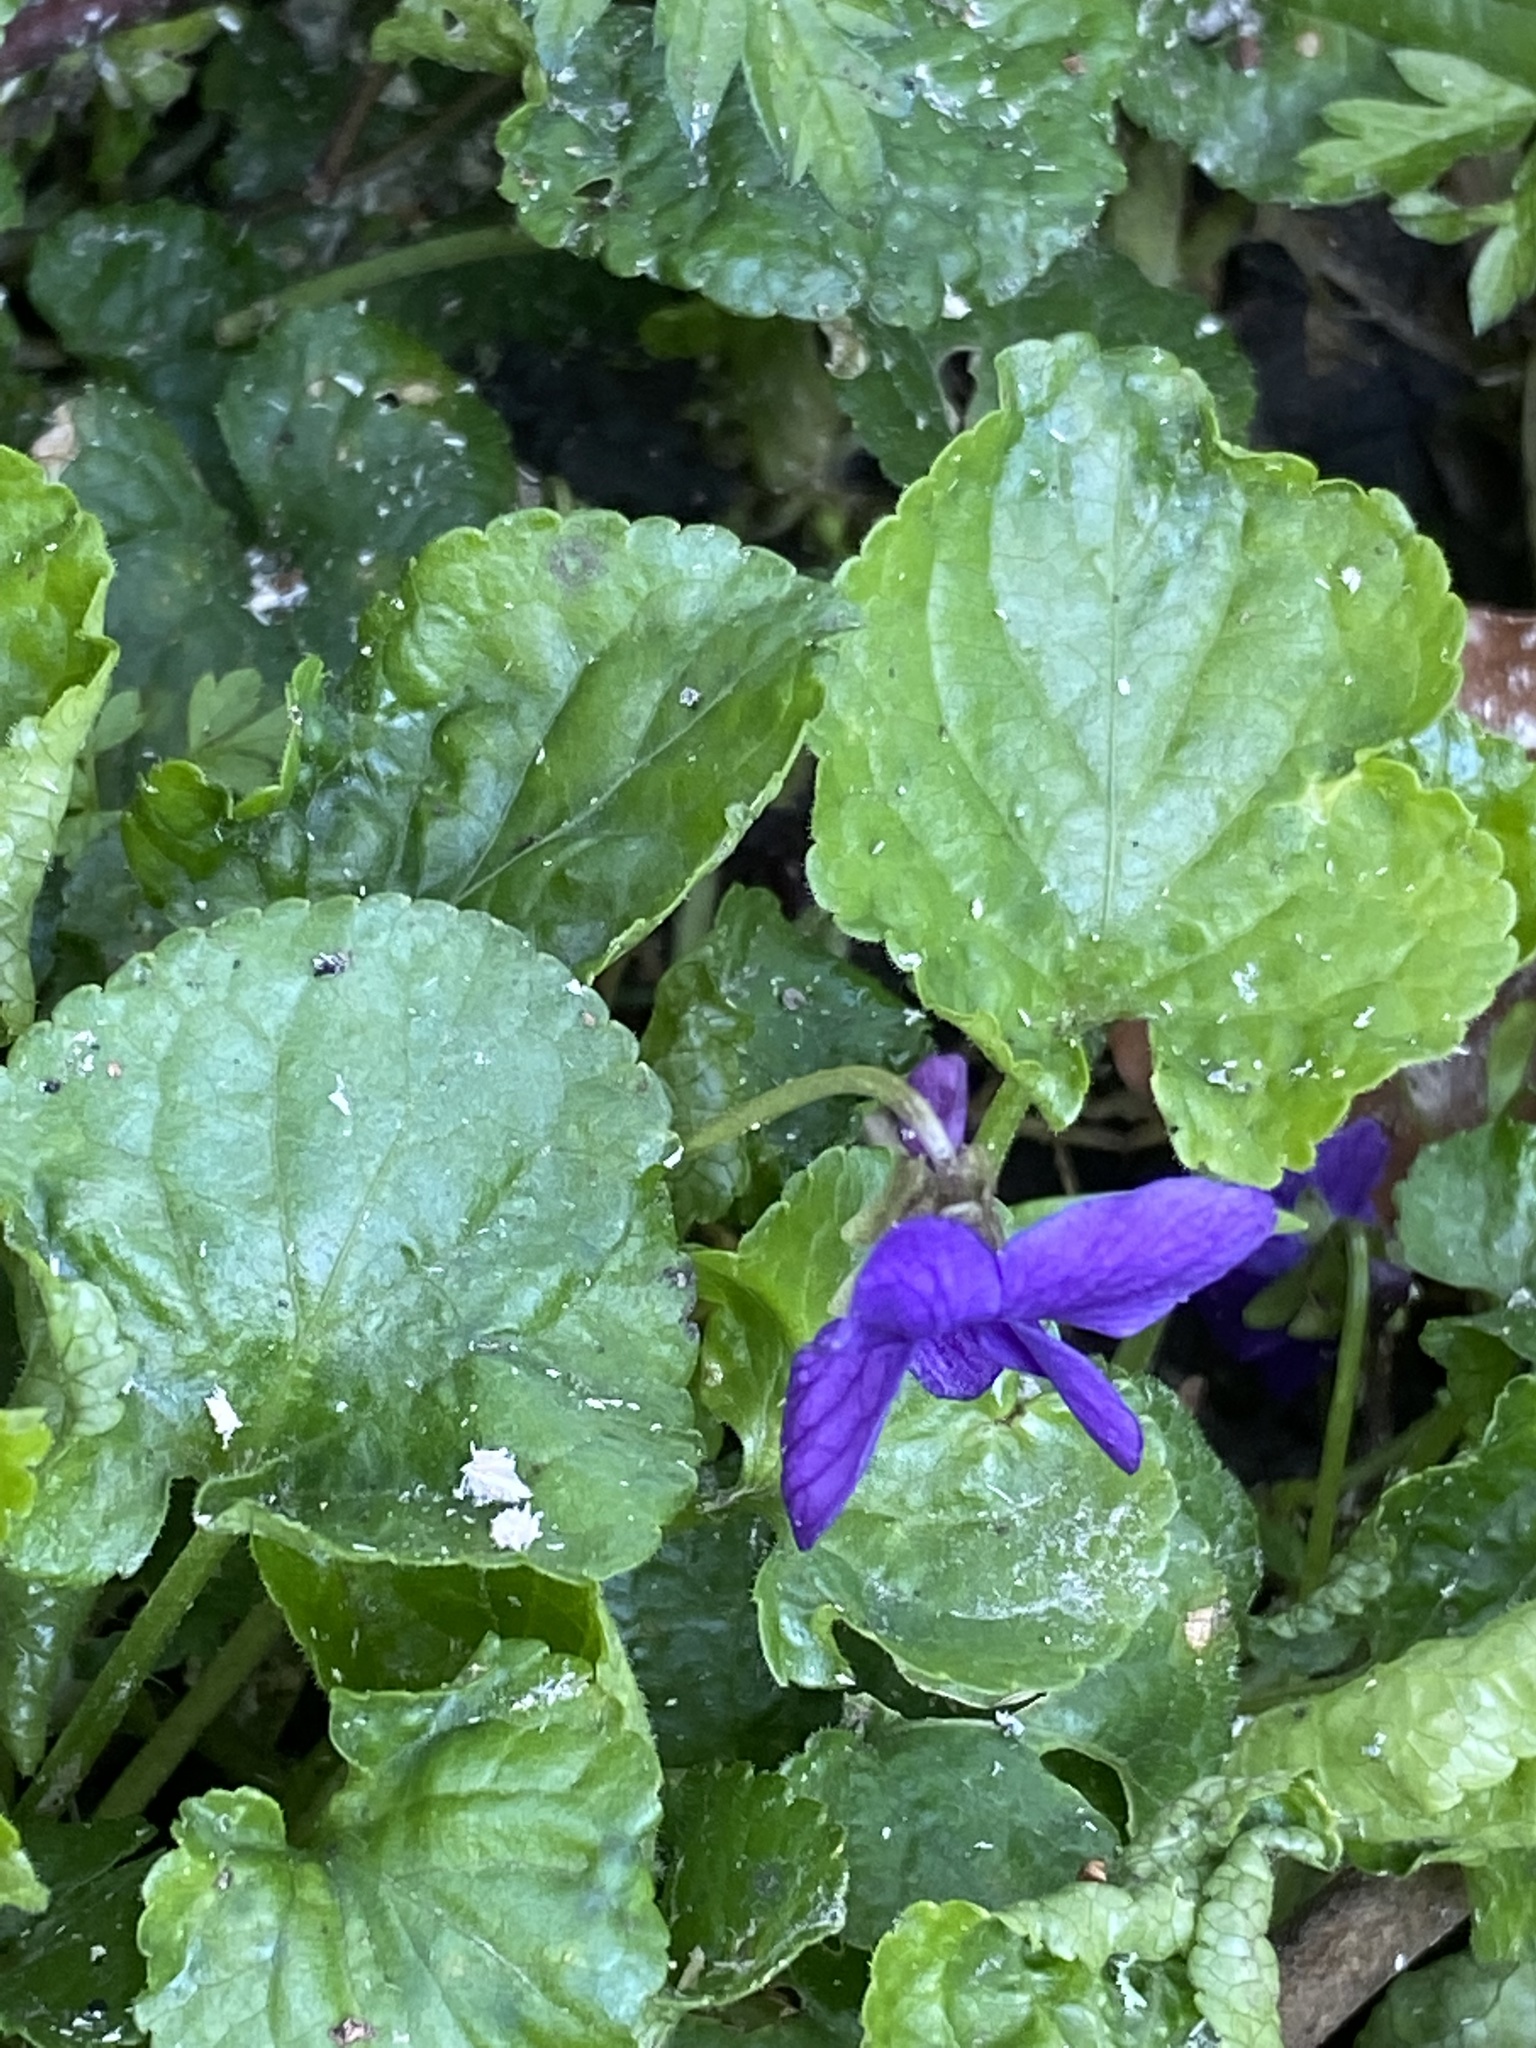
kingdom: Plantae
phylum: Tracheophyta
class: Magnoliopsida
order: Malpighiales
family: Violaceae
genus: Viola
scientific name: Viola odorata
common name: Sweet violet
